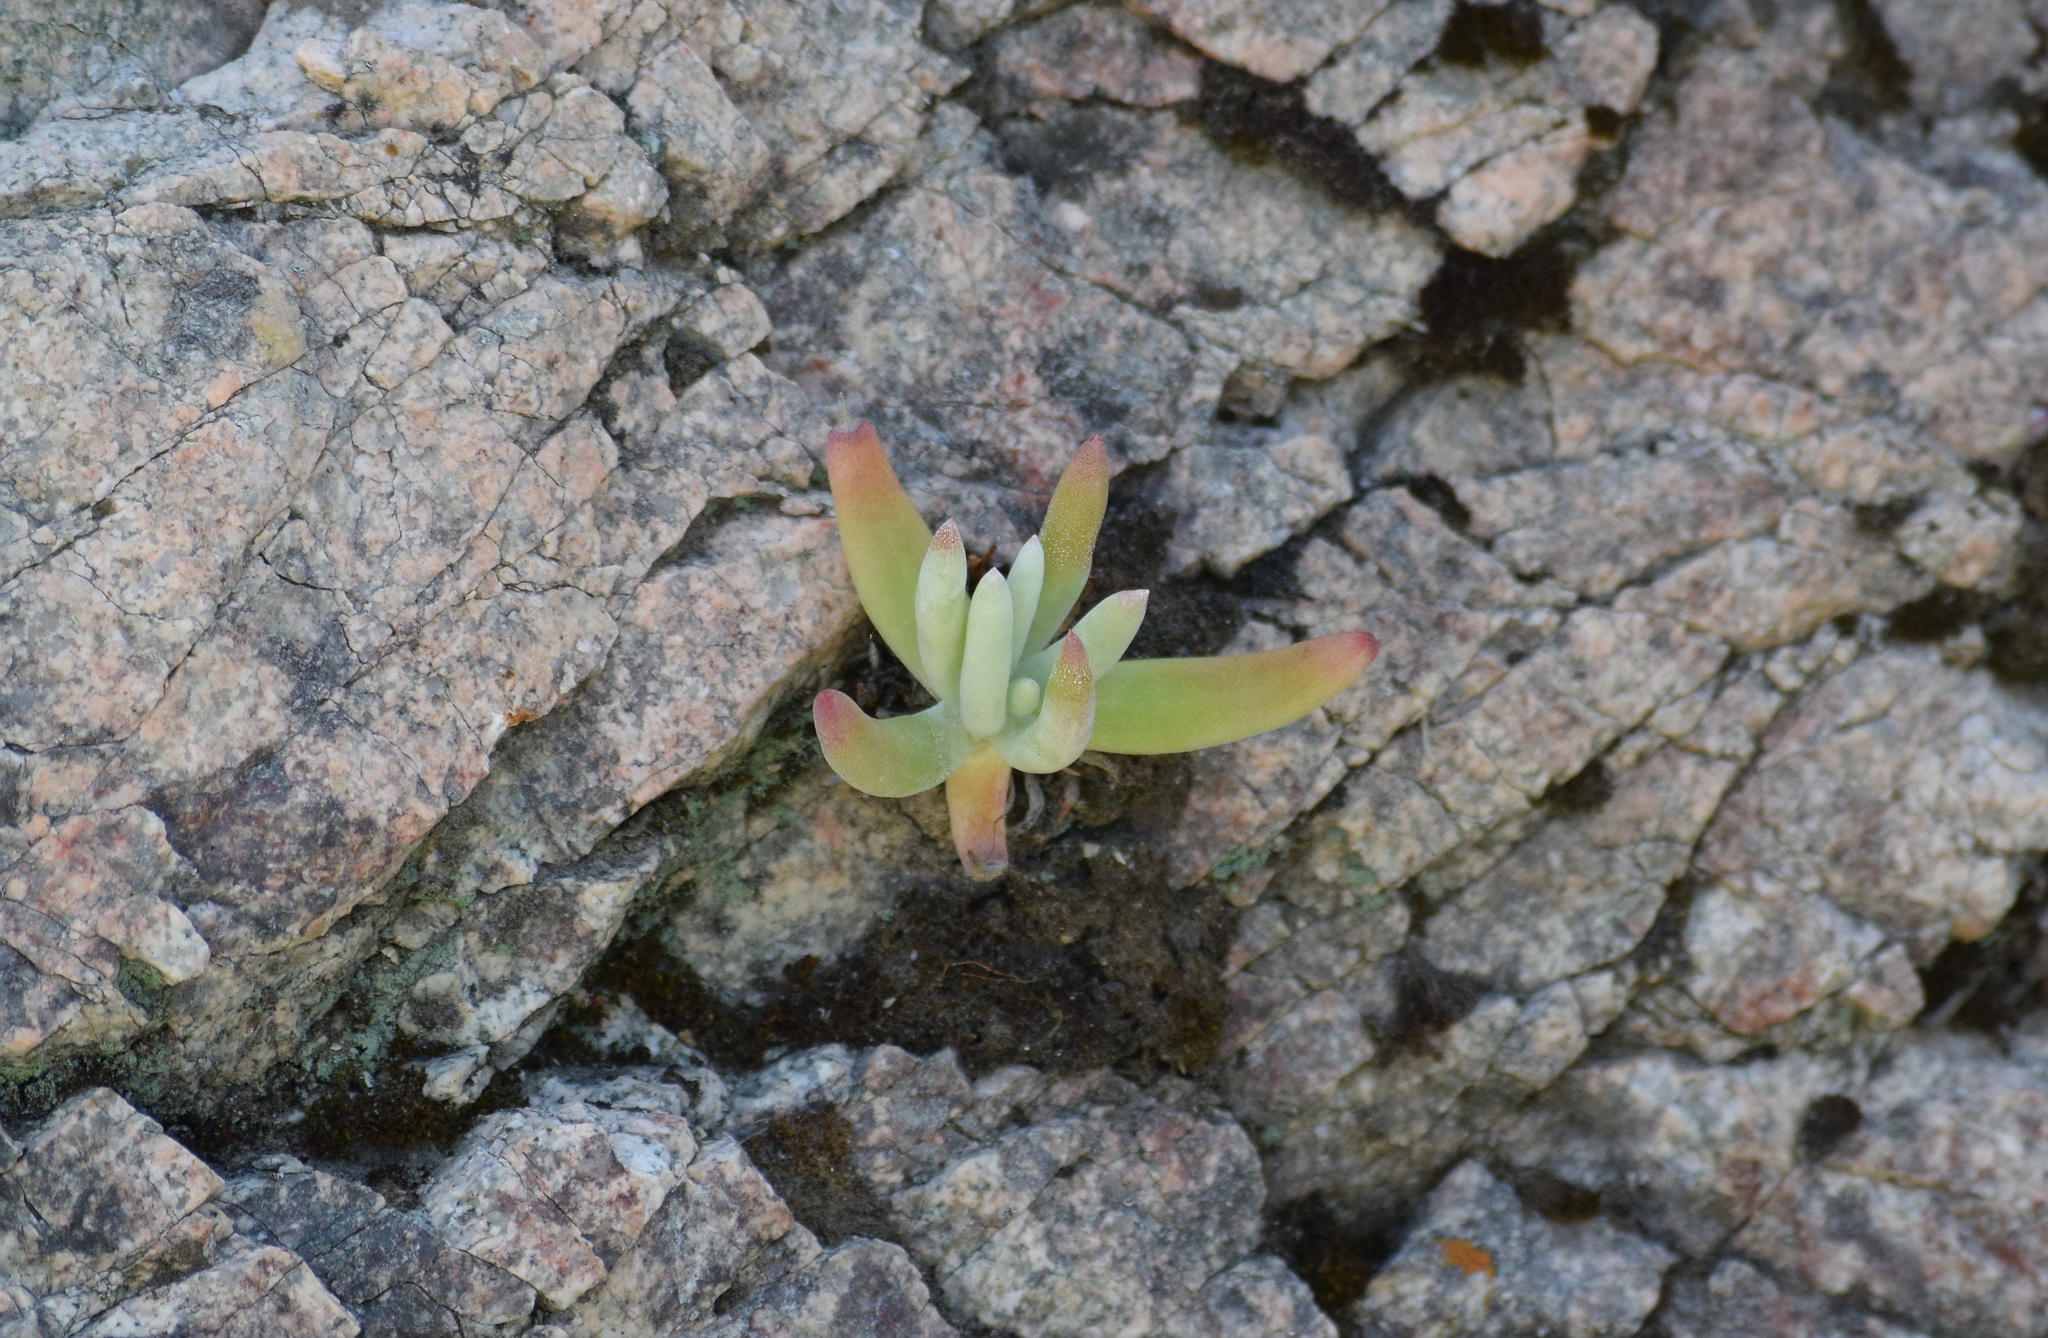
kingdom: Plantae
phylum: Tracheophyta
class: Magnoliopsida
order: Saxifragales
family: Crassulaceae
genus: Dudleya
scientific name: Dudleya densiflora
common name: San gabriel mountains dudleya
